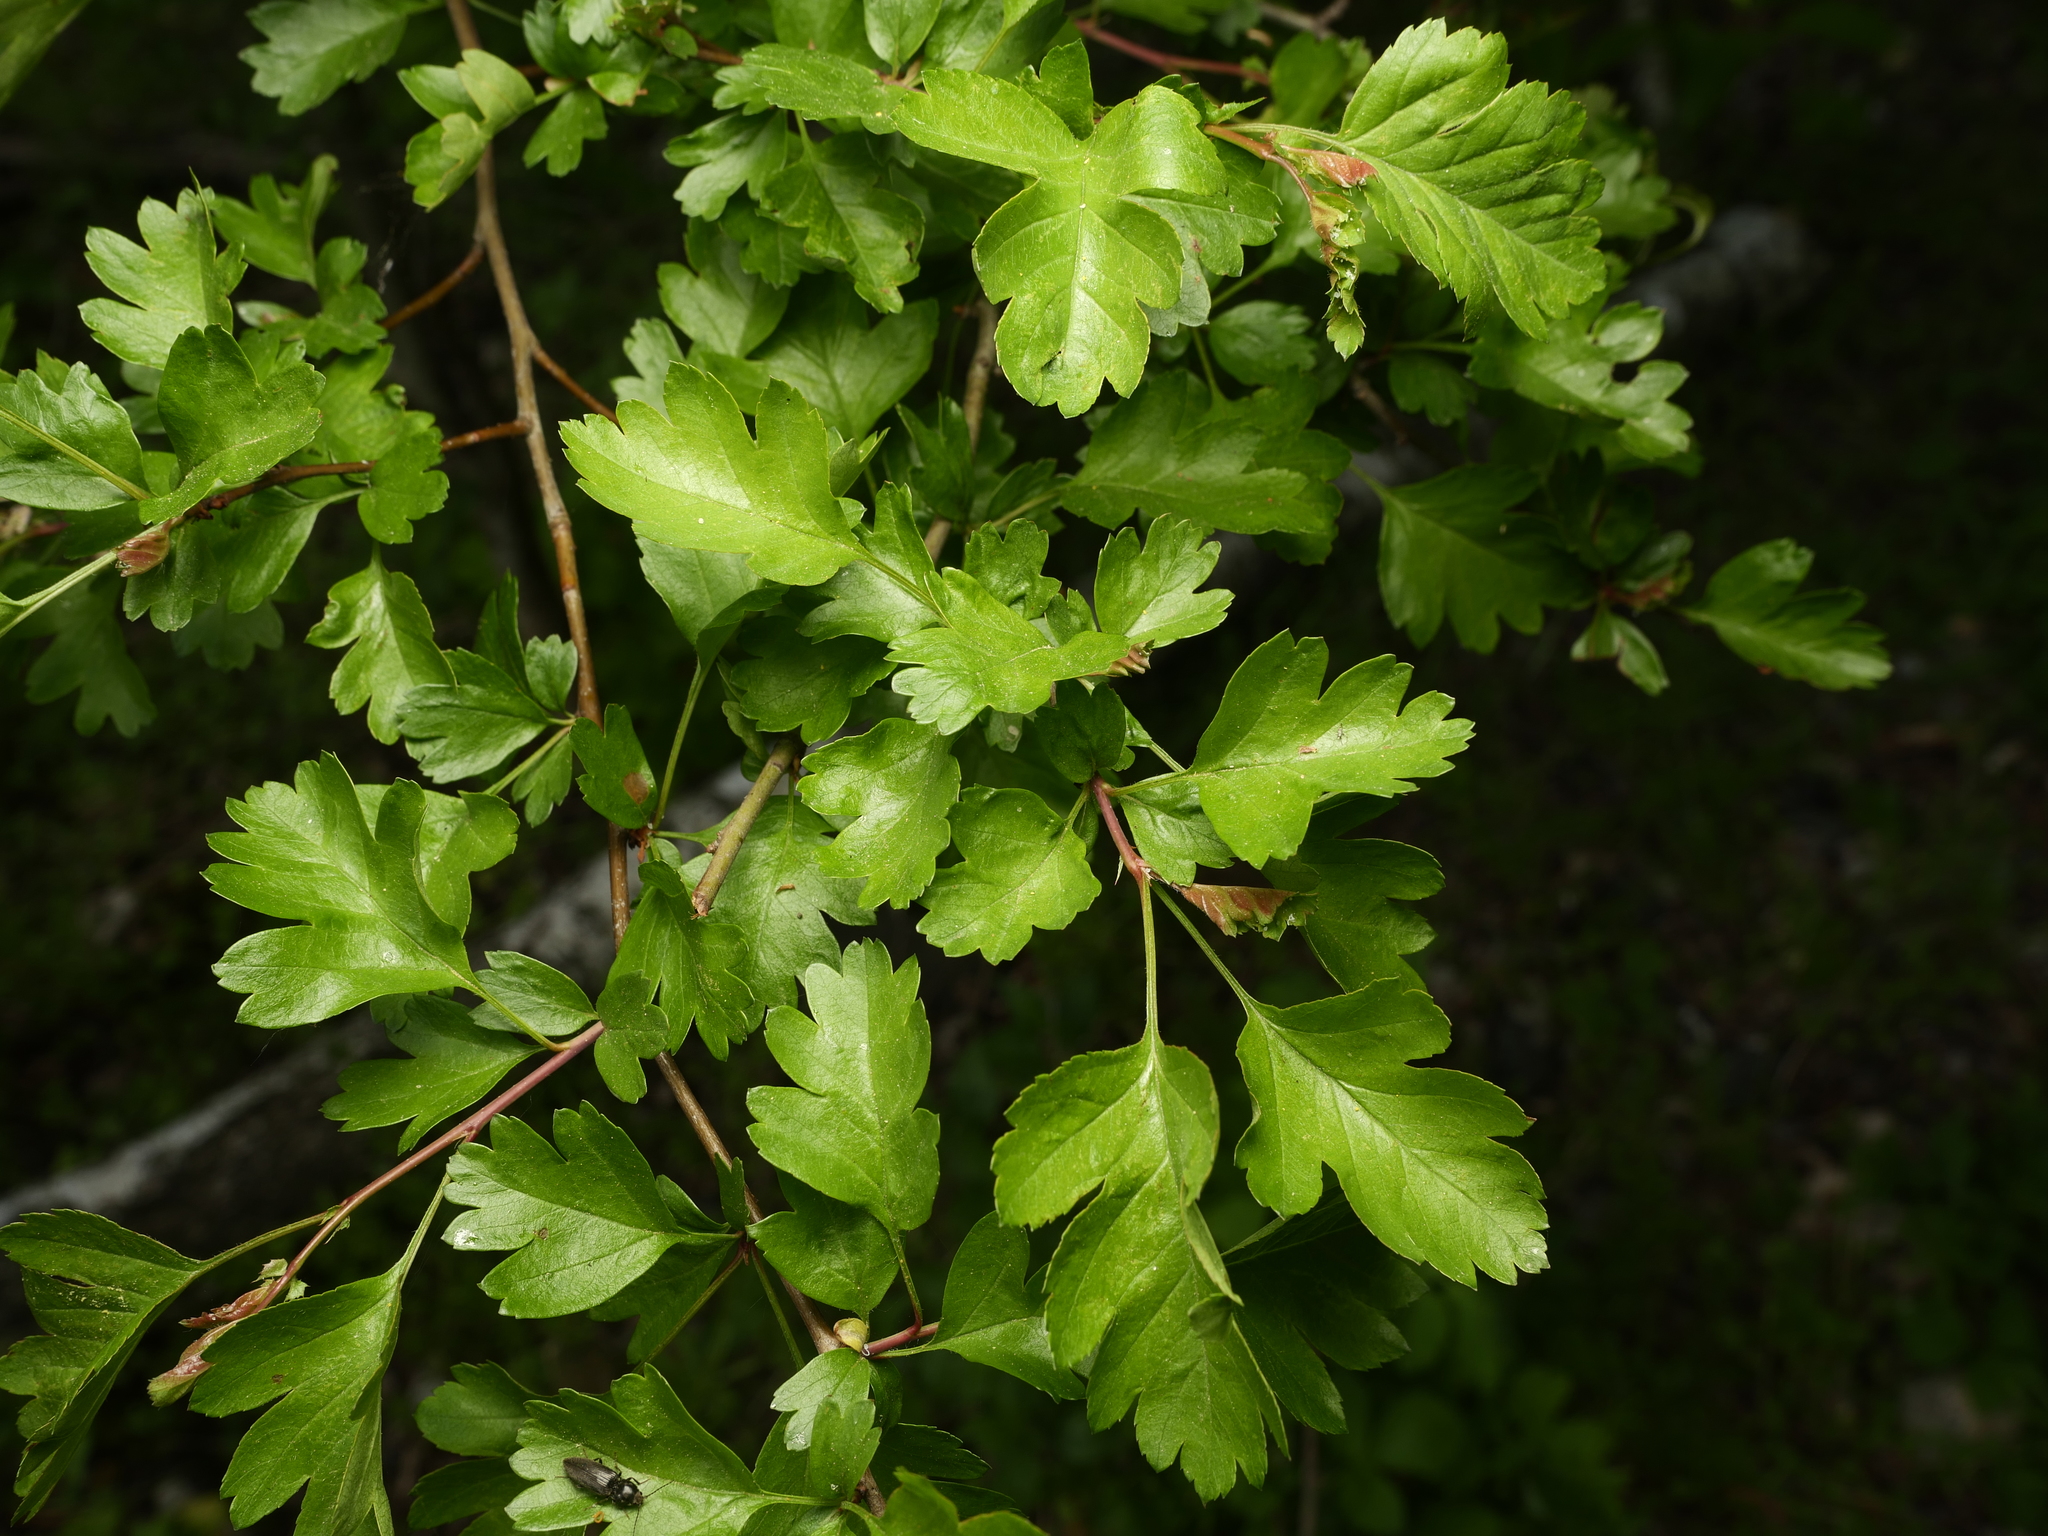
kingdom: Plantae
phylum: Tracheophyta
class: Magnoliopsida
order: Rosales
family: Rosaceae
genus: Crataegus
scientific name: Crataegus monogyna
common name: Hawthorn
